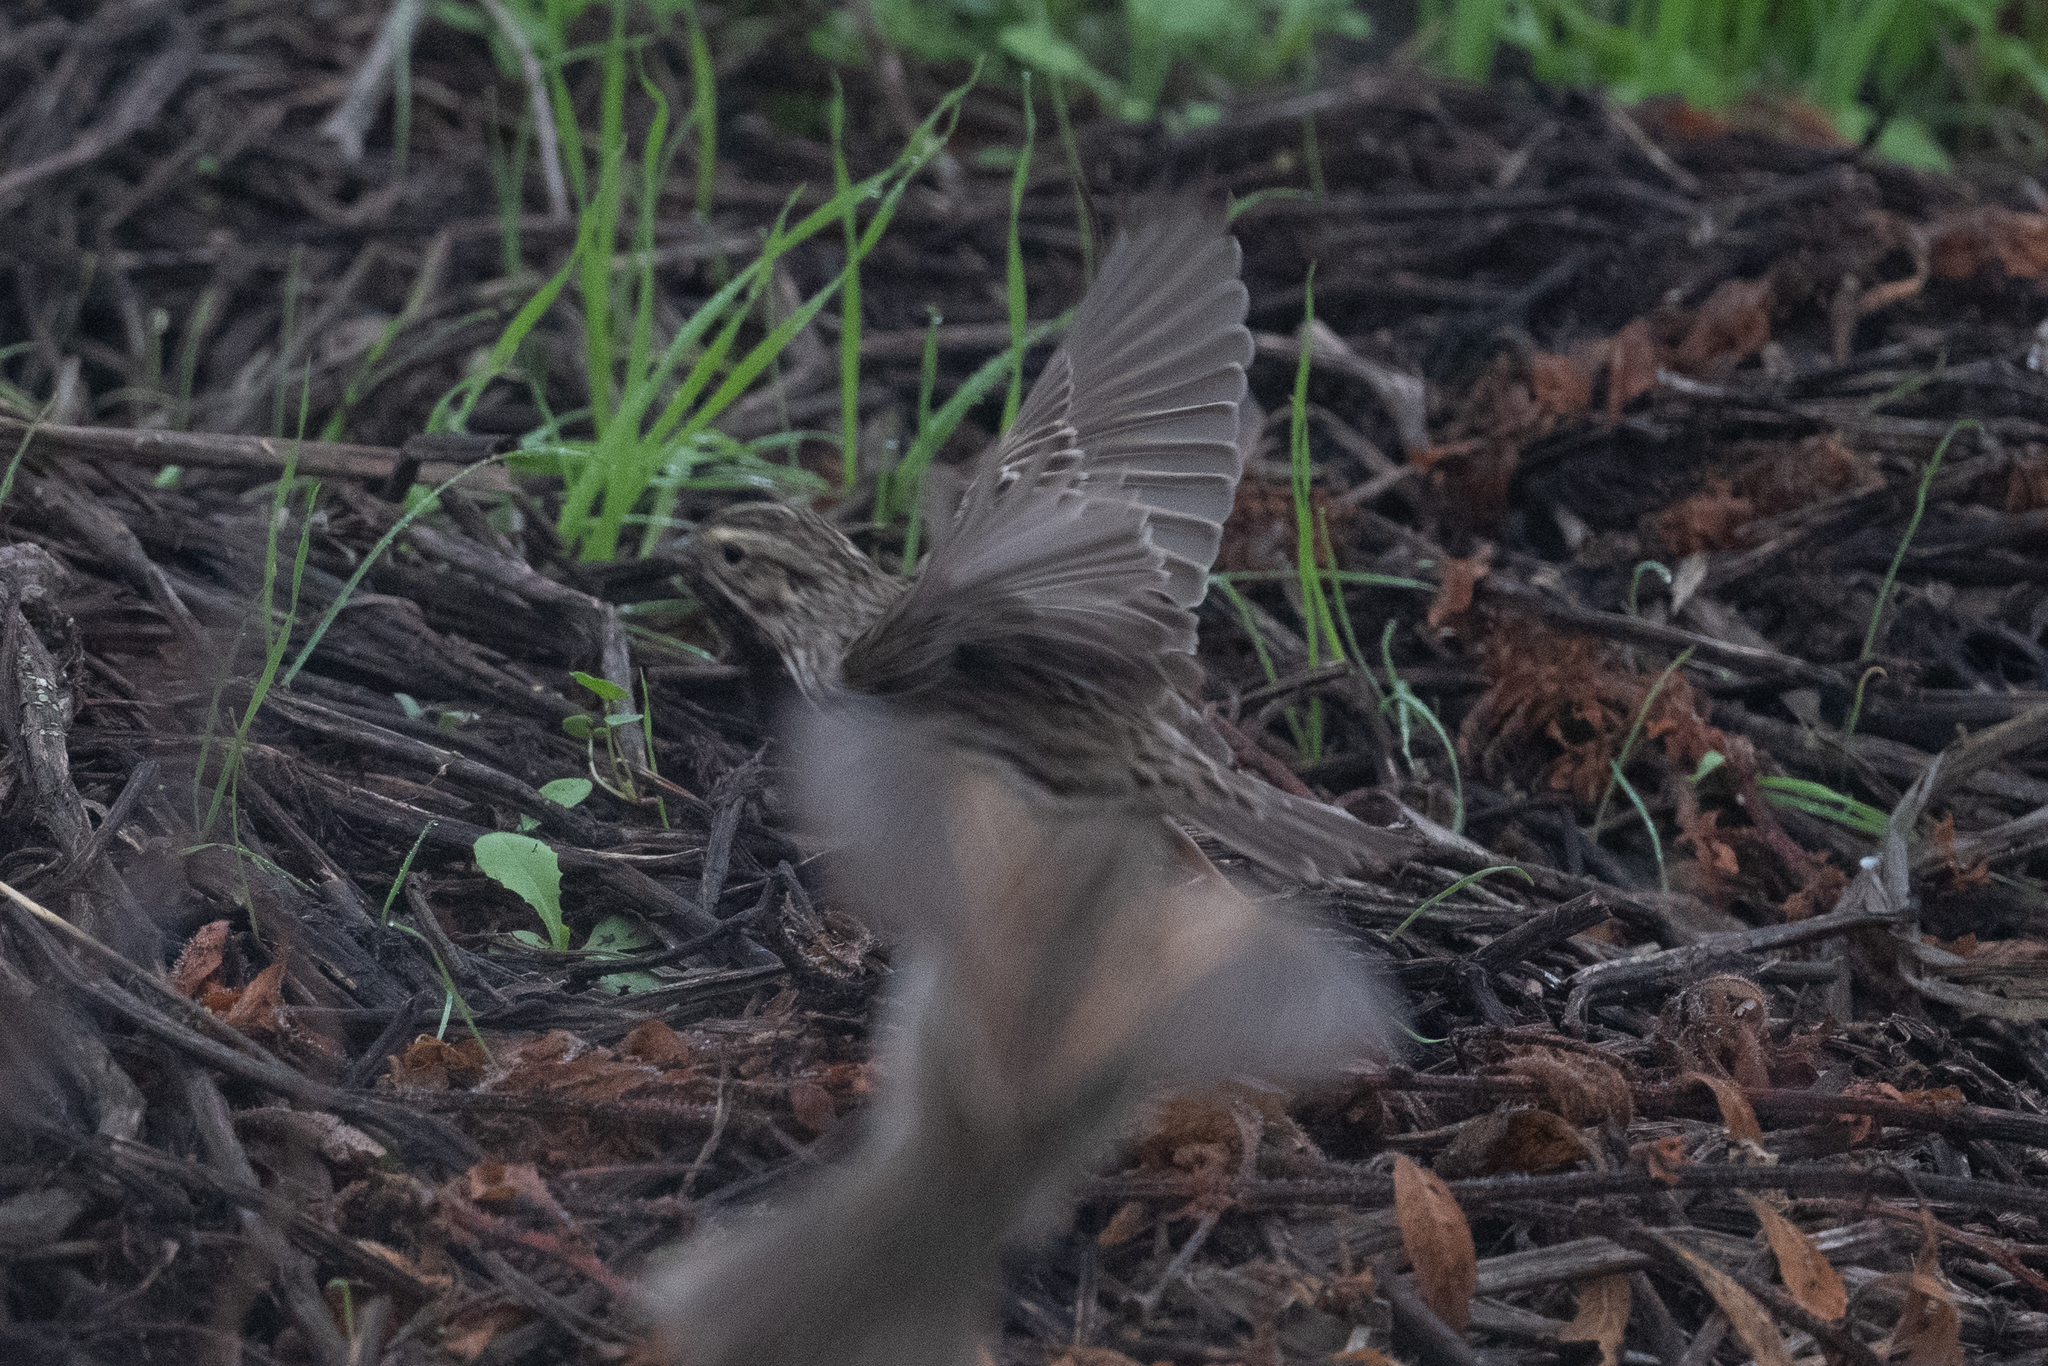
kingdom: Animalia
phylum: Chordata
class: Aves
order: Passeriformes
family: Passerellidae
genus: Passerculus
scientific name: Passerculus sandwichensis
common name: Savannah sparrow
